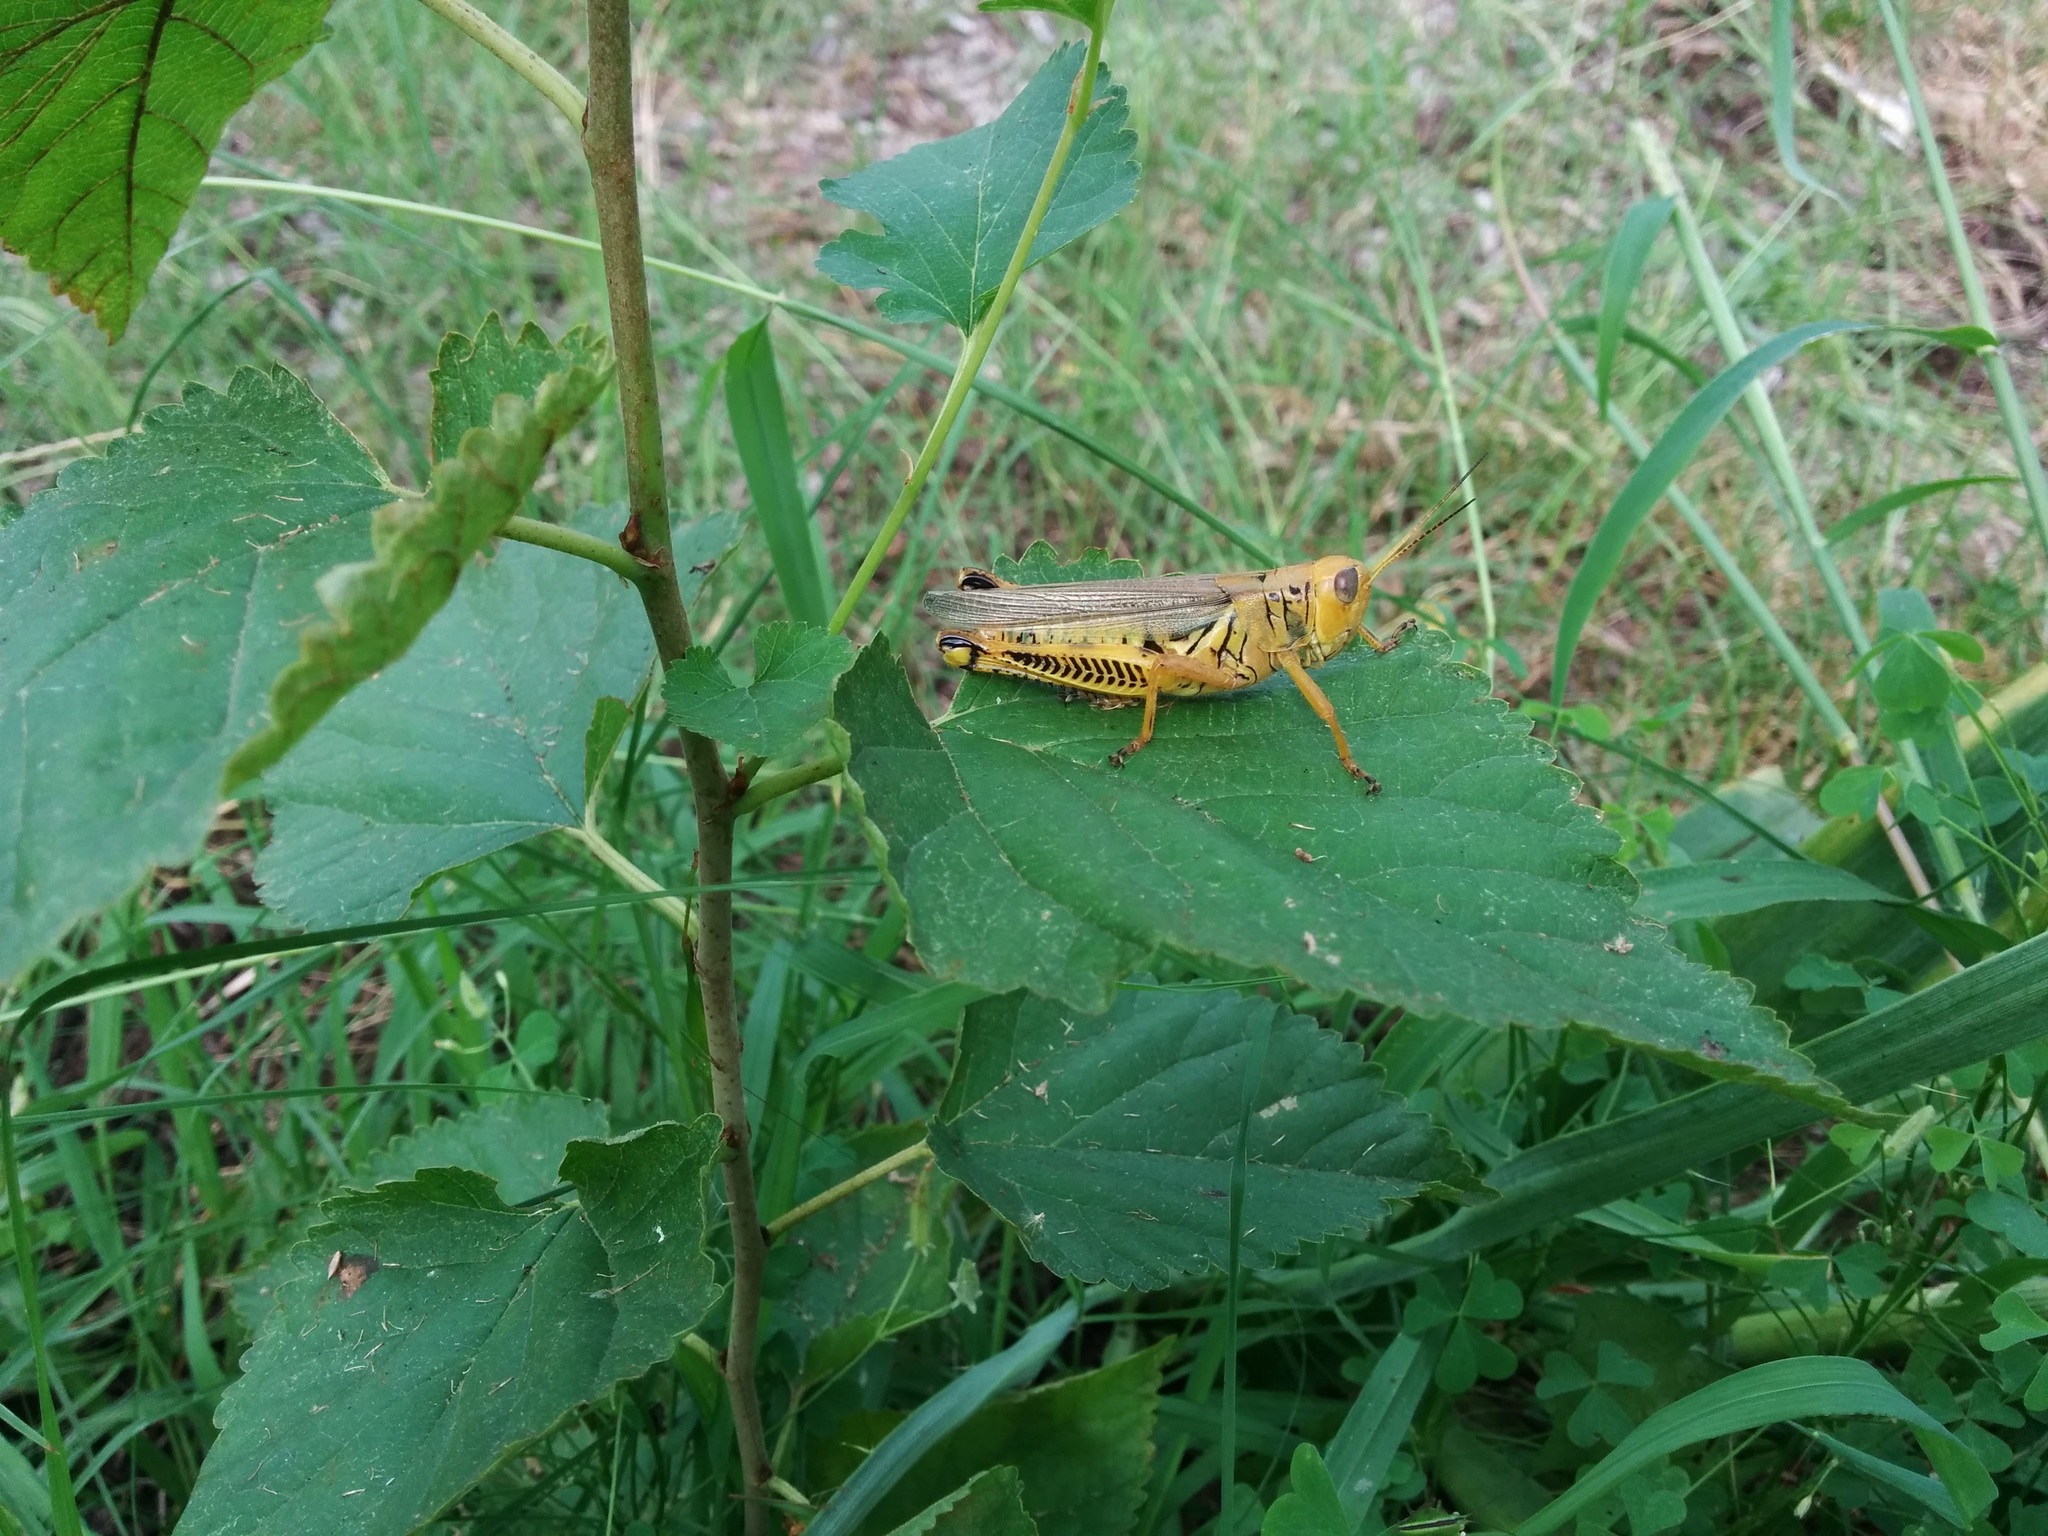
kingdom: Animalia
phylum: Arthropoda
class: Insecta
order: Orthoptera
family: Acrididae
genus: Melanoplus
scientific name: Melanoplus differentialis
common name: Differential grasshopper
